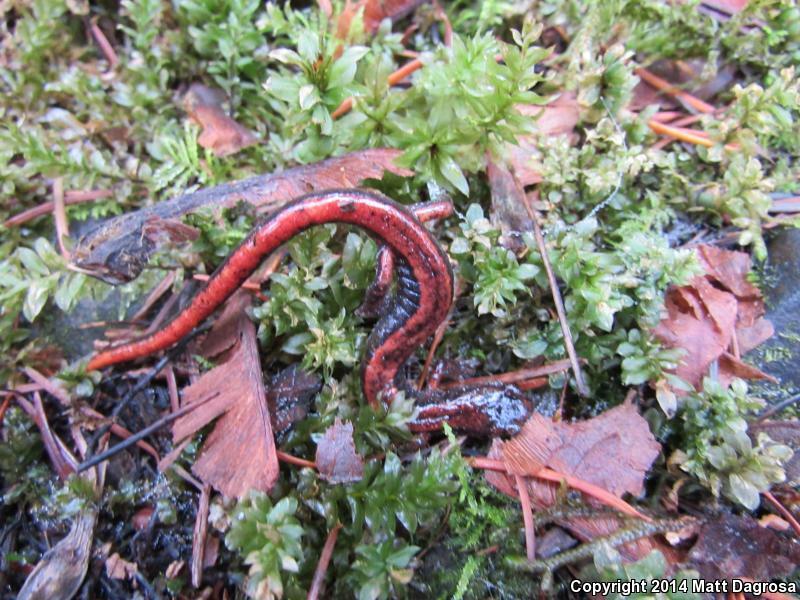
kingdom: Animalia
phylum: Chordata
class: Amphibia
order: Caudata
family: Plethodontidae
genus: Plethodon
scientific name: Plethodon vehiculum
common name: Western red-backed salamander
